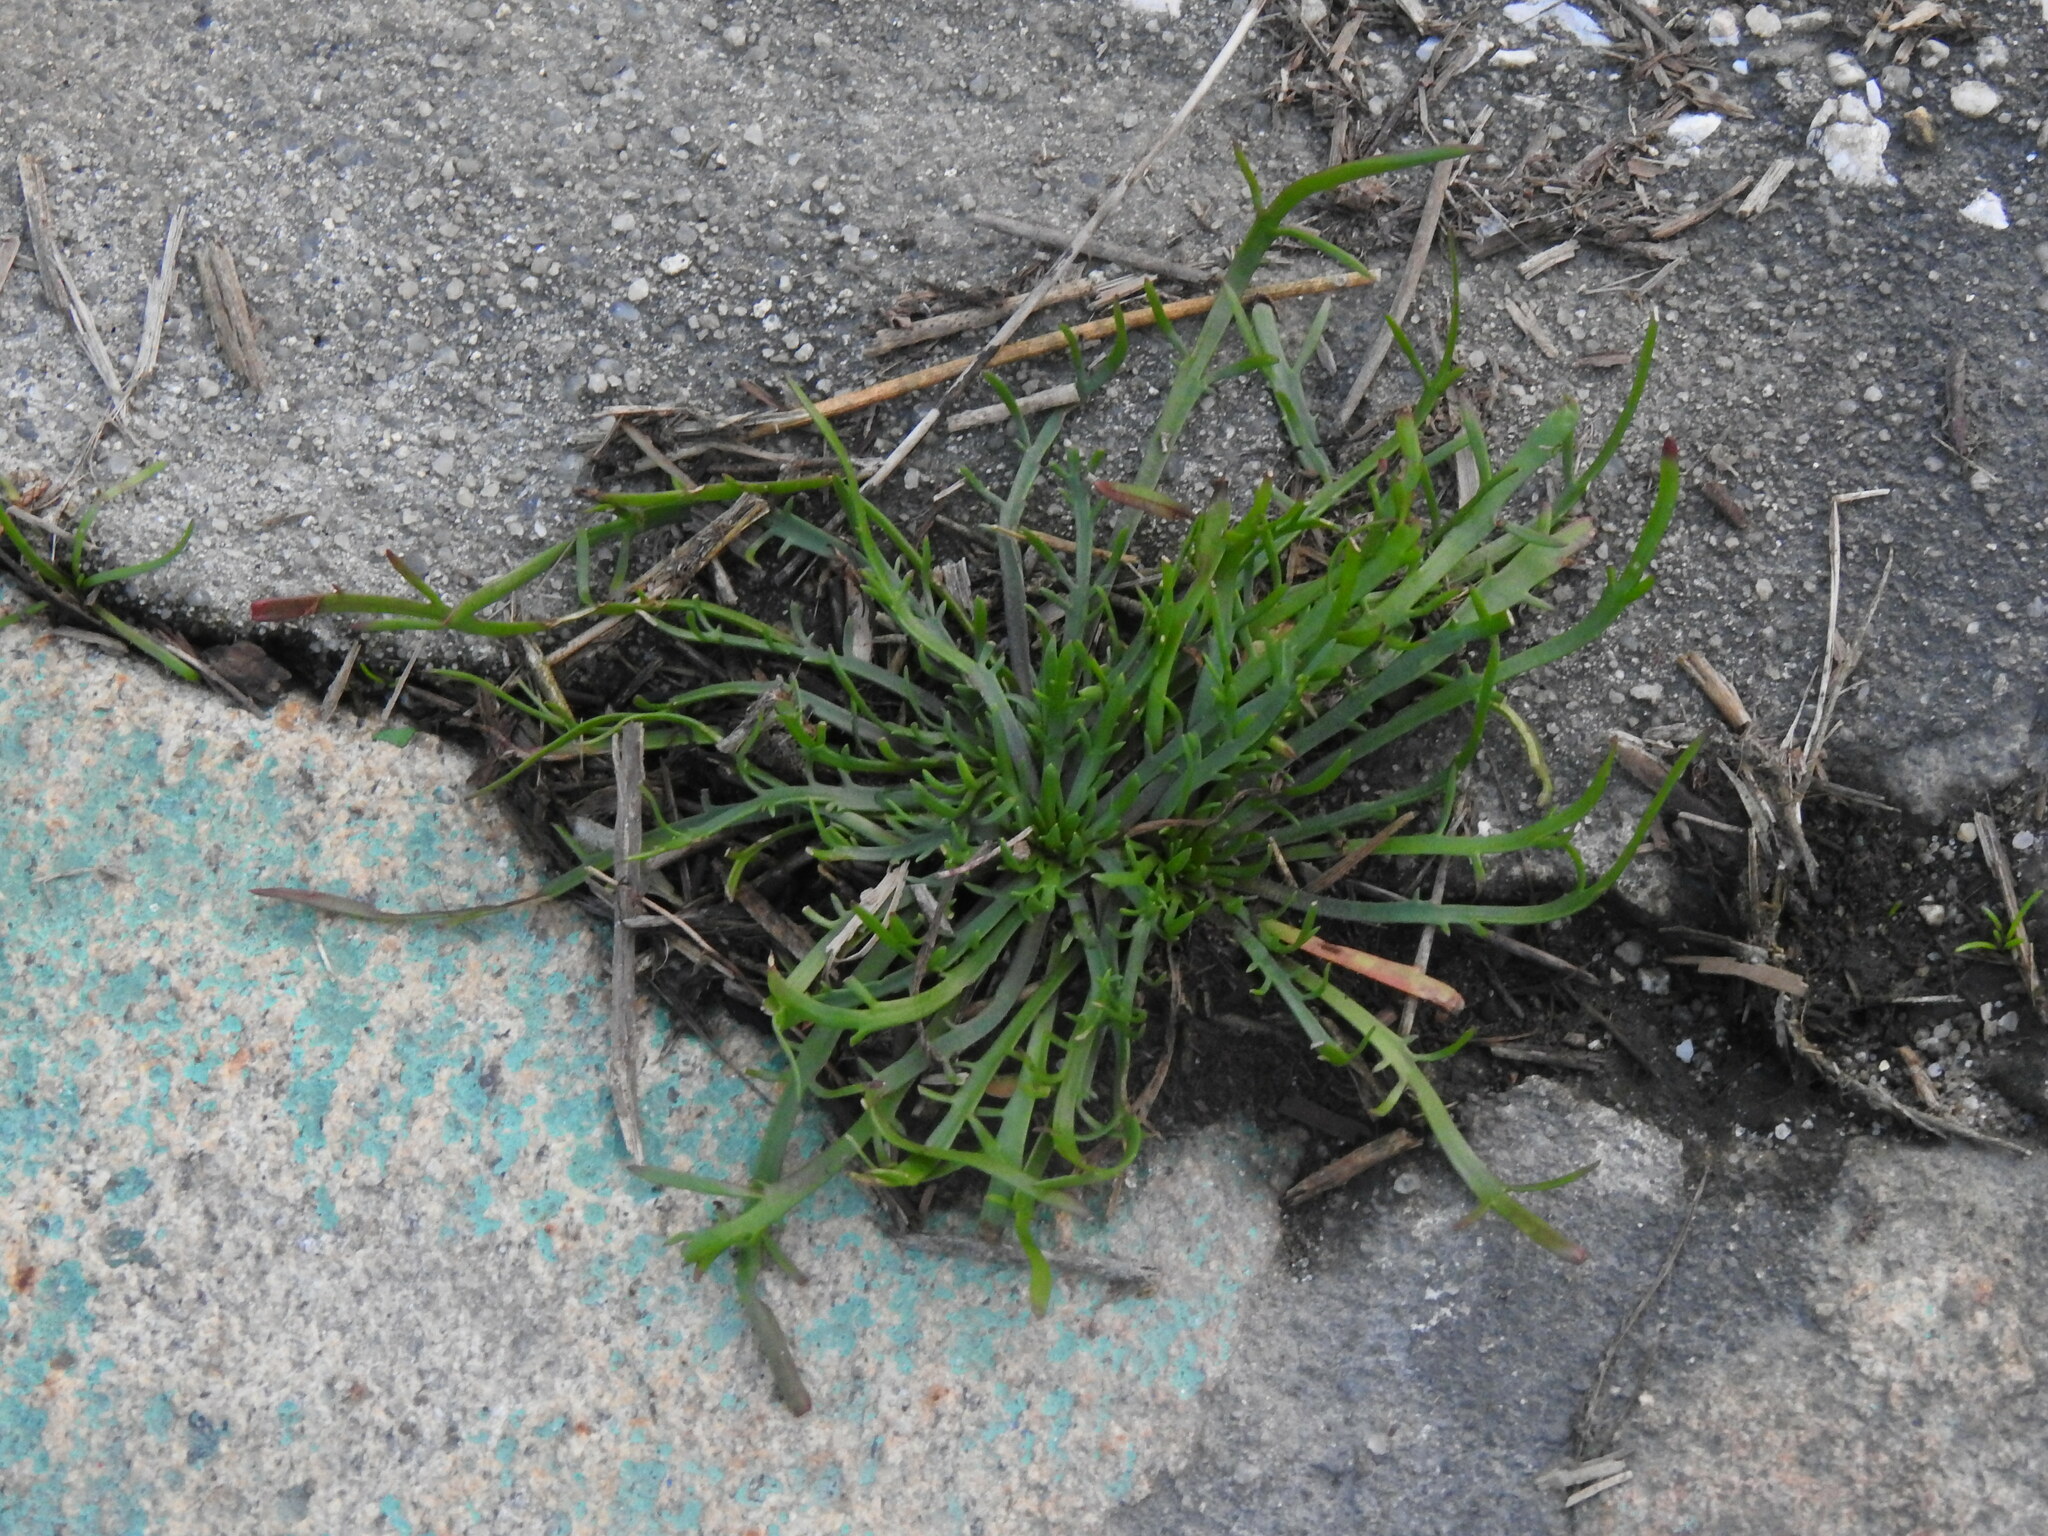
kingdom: Plantae
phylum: Tracheophyta
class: Magnoliopsida
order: Lamiales
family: Plantaginaceae
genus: Plantago
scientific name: Plantago coronopus
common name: Buck's-horn plantain
